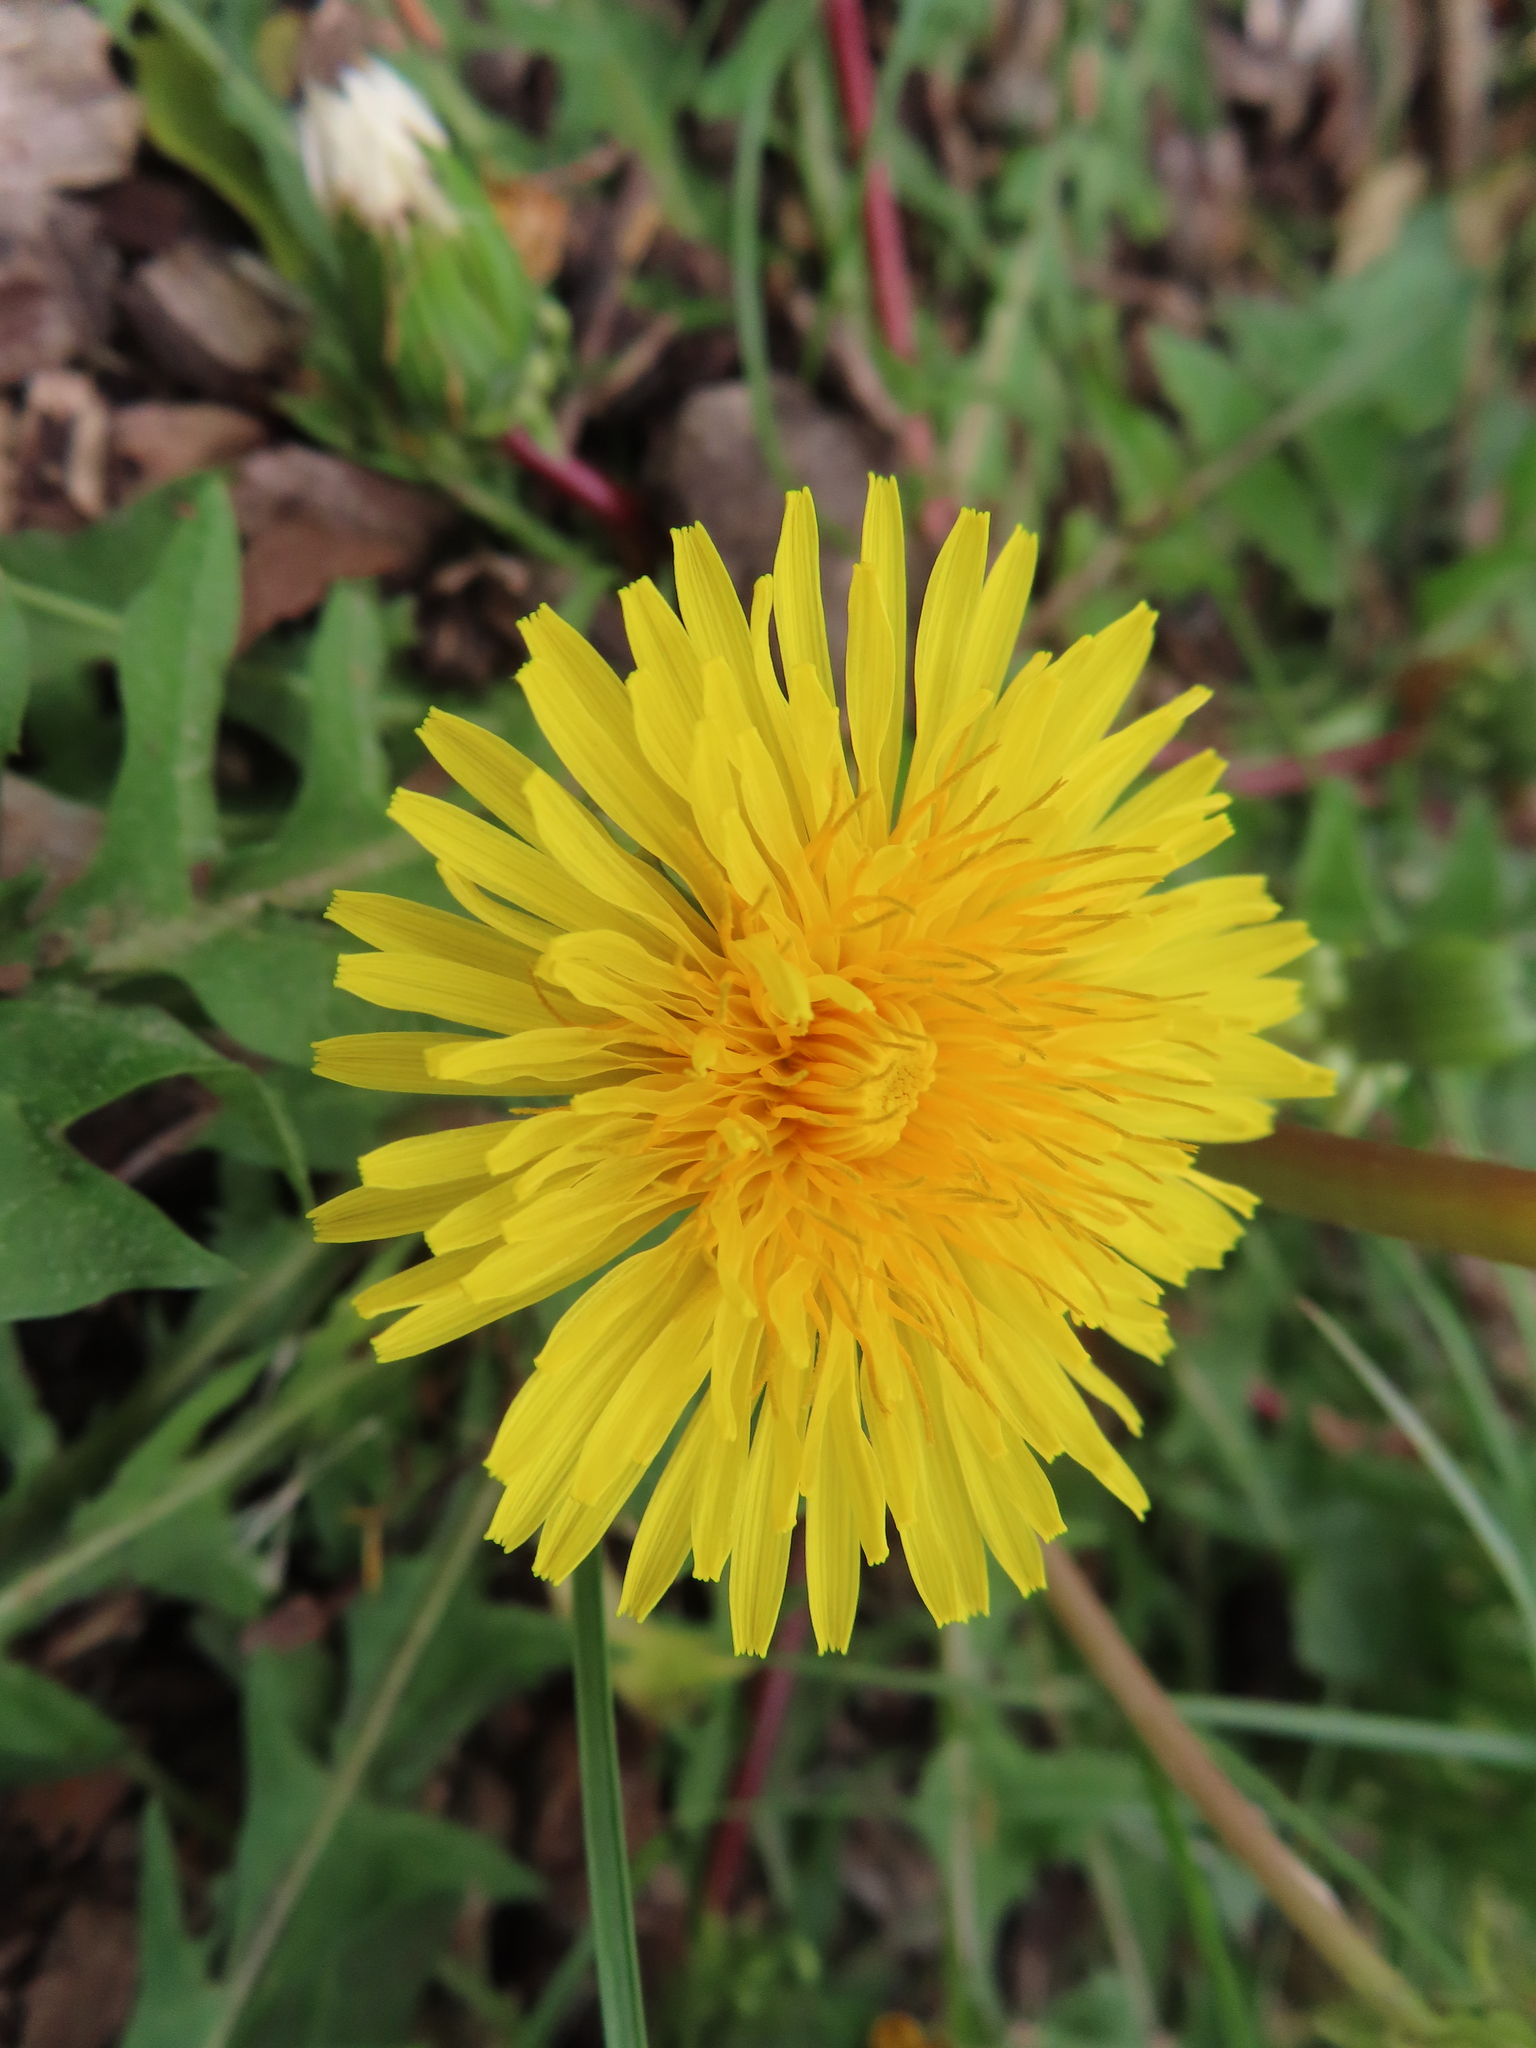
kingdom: Plantae
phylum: Tracheophyta
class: Magnoliopsida
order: Asterales
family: Asteraceae
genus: Taraxacum
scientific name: Taraxacum
